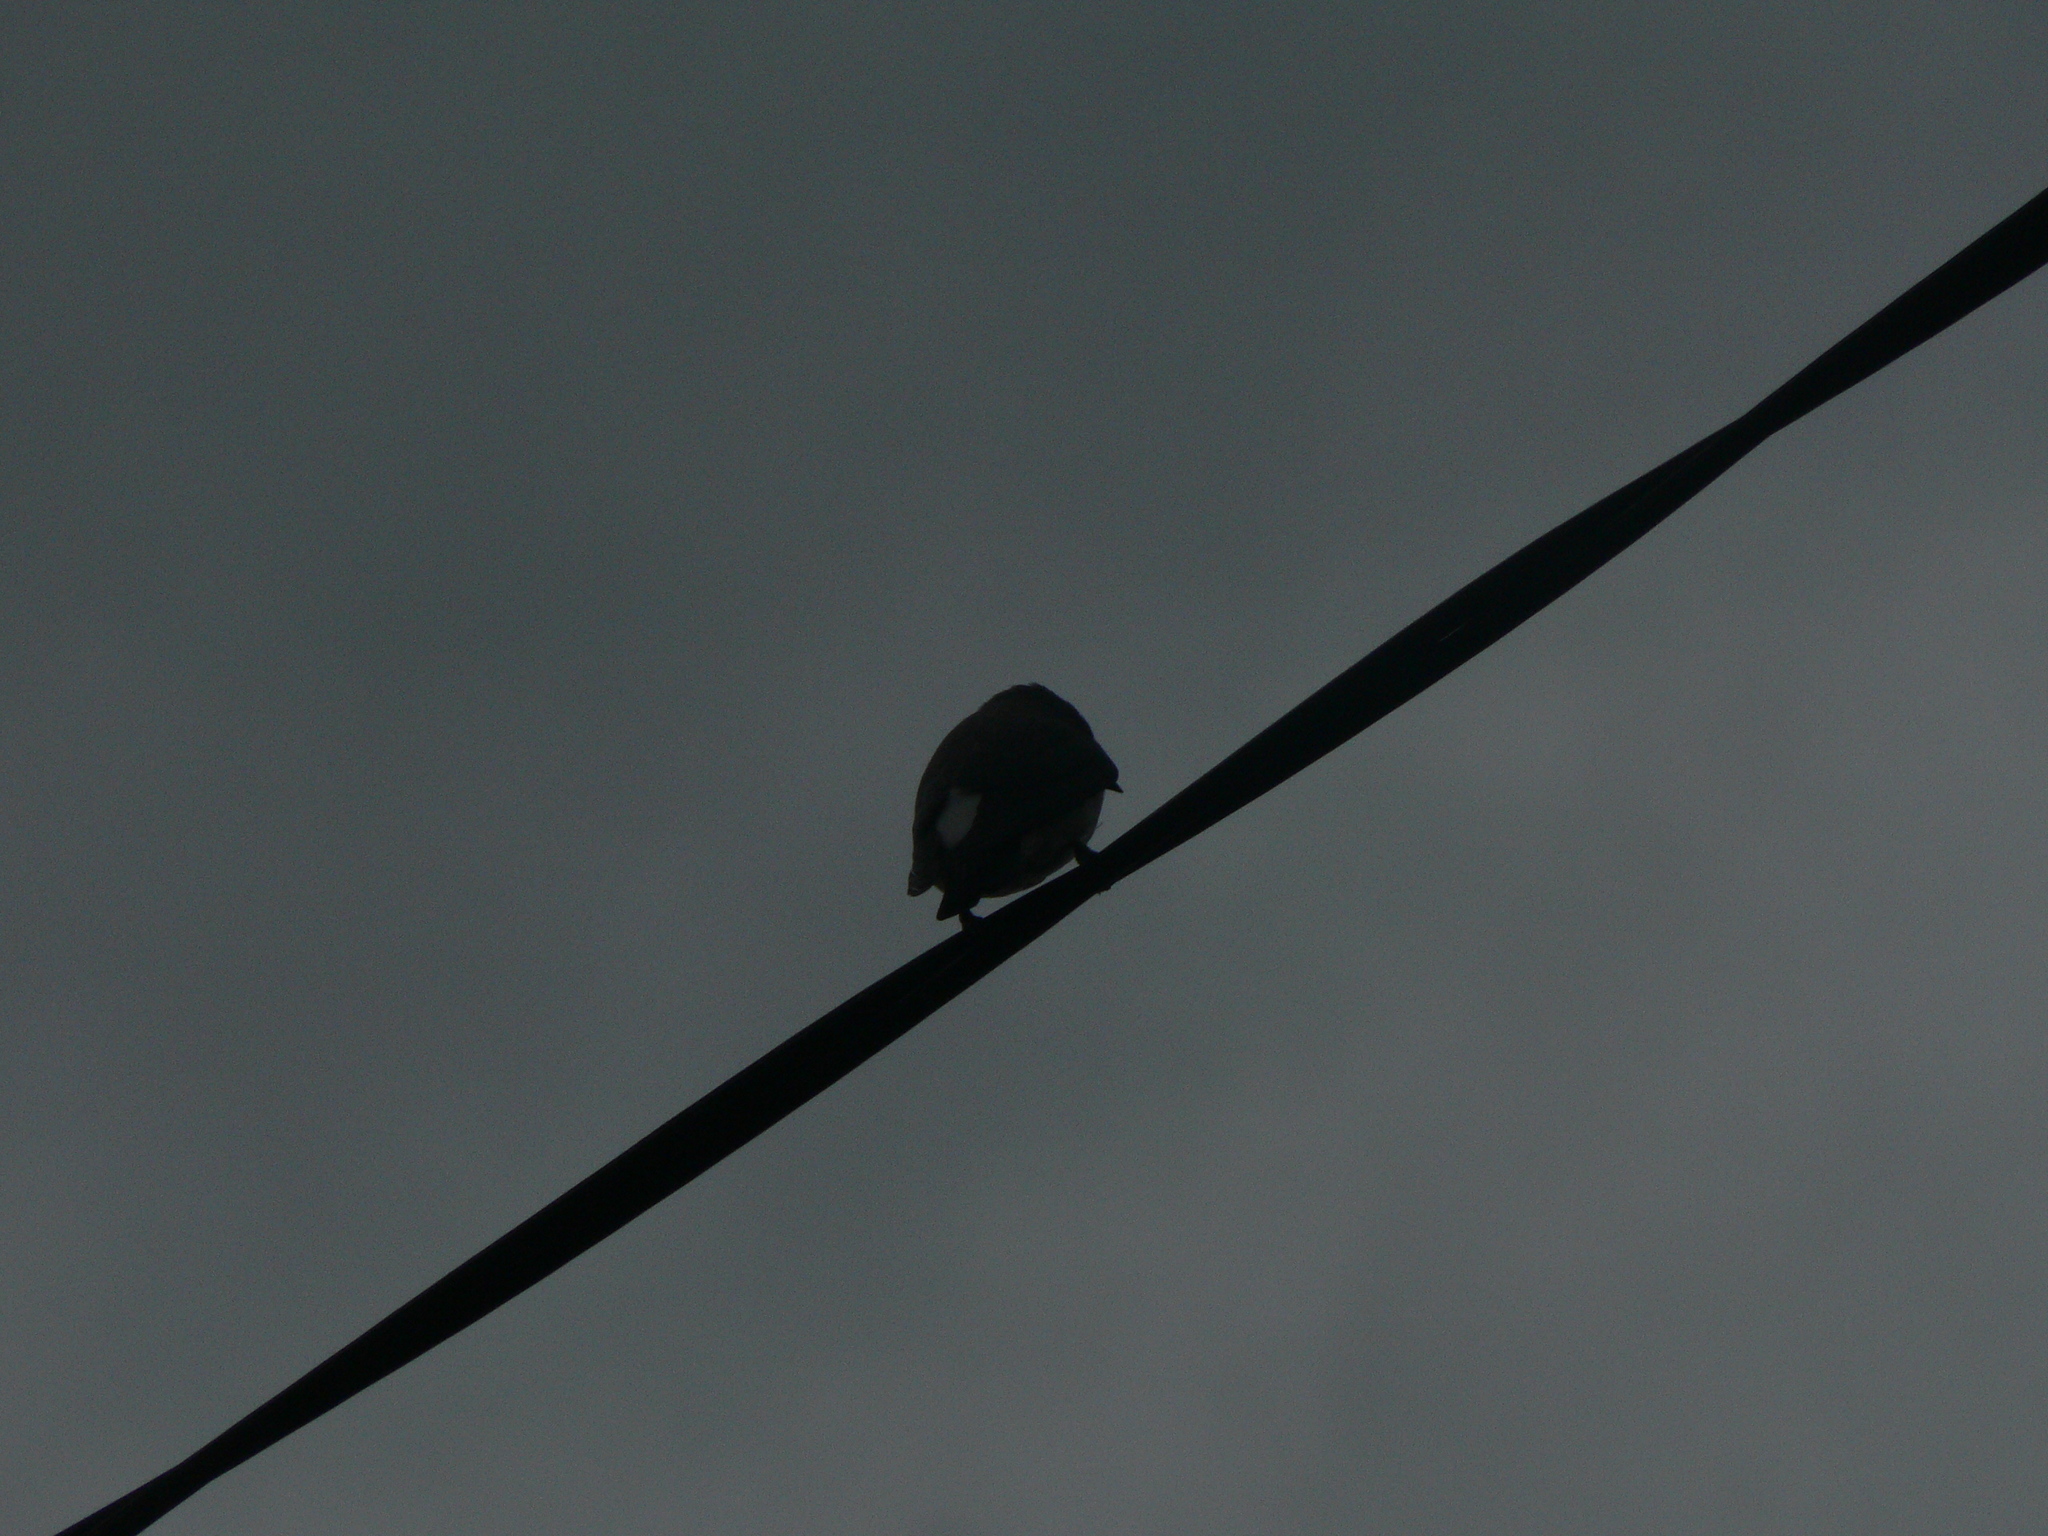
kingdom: Animalia
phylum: Chordata
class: Aves
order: Passeriformes
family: Artamidae
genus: Artamus
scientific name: Artamus leucoryn
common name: White-breasted woodswallow
